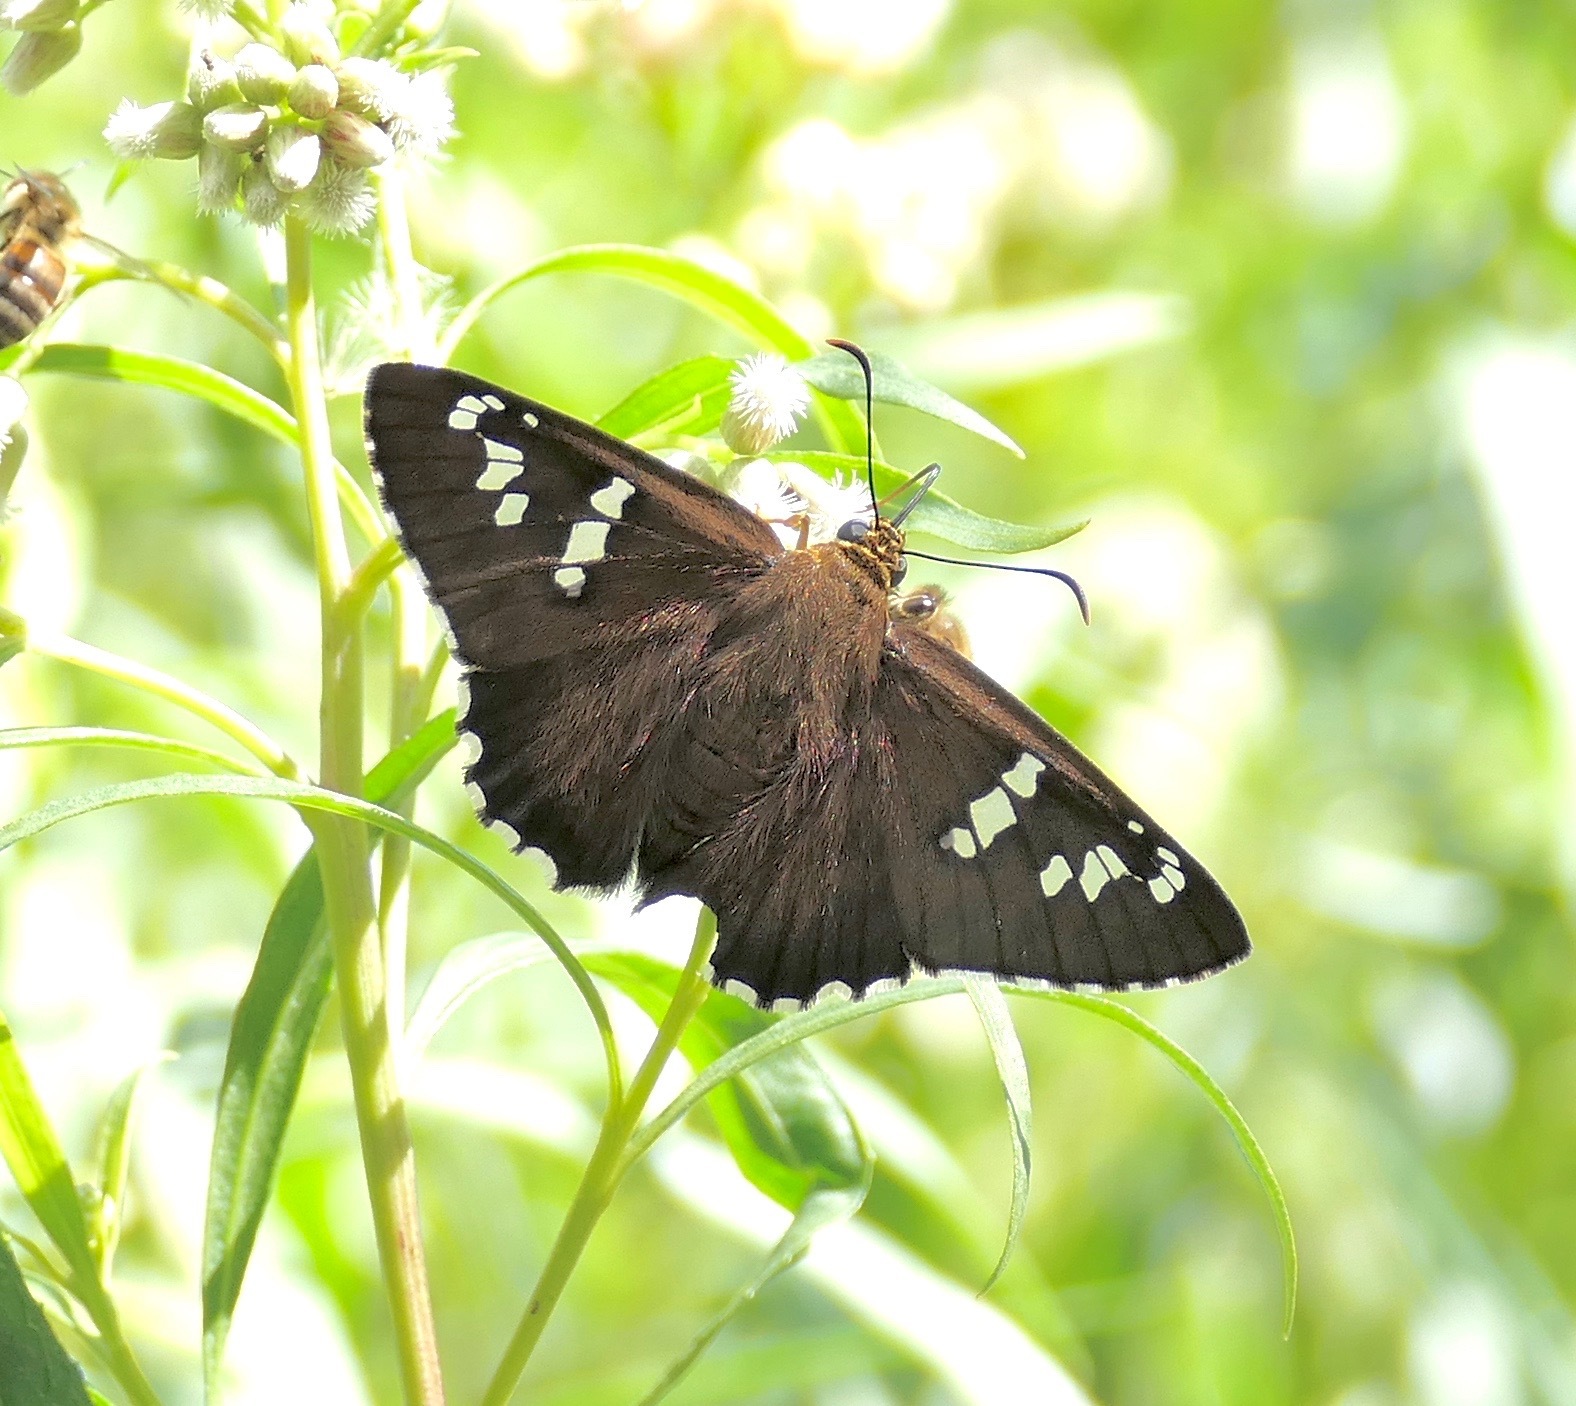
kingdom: Animalia
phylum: Arthropoda
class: Insecta
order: Lepidoptera
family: Hesperiidae
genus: Pyrrhopyge
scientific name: Pyrrhopyge araxes
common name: Dull firetip
